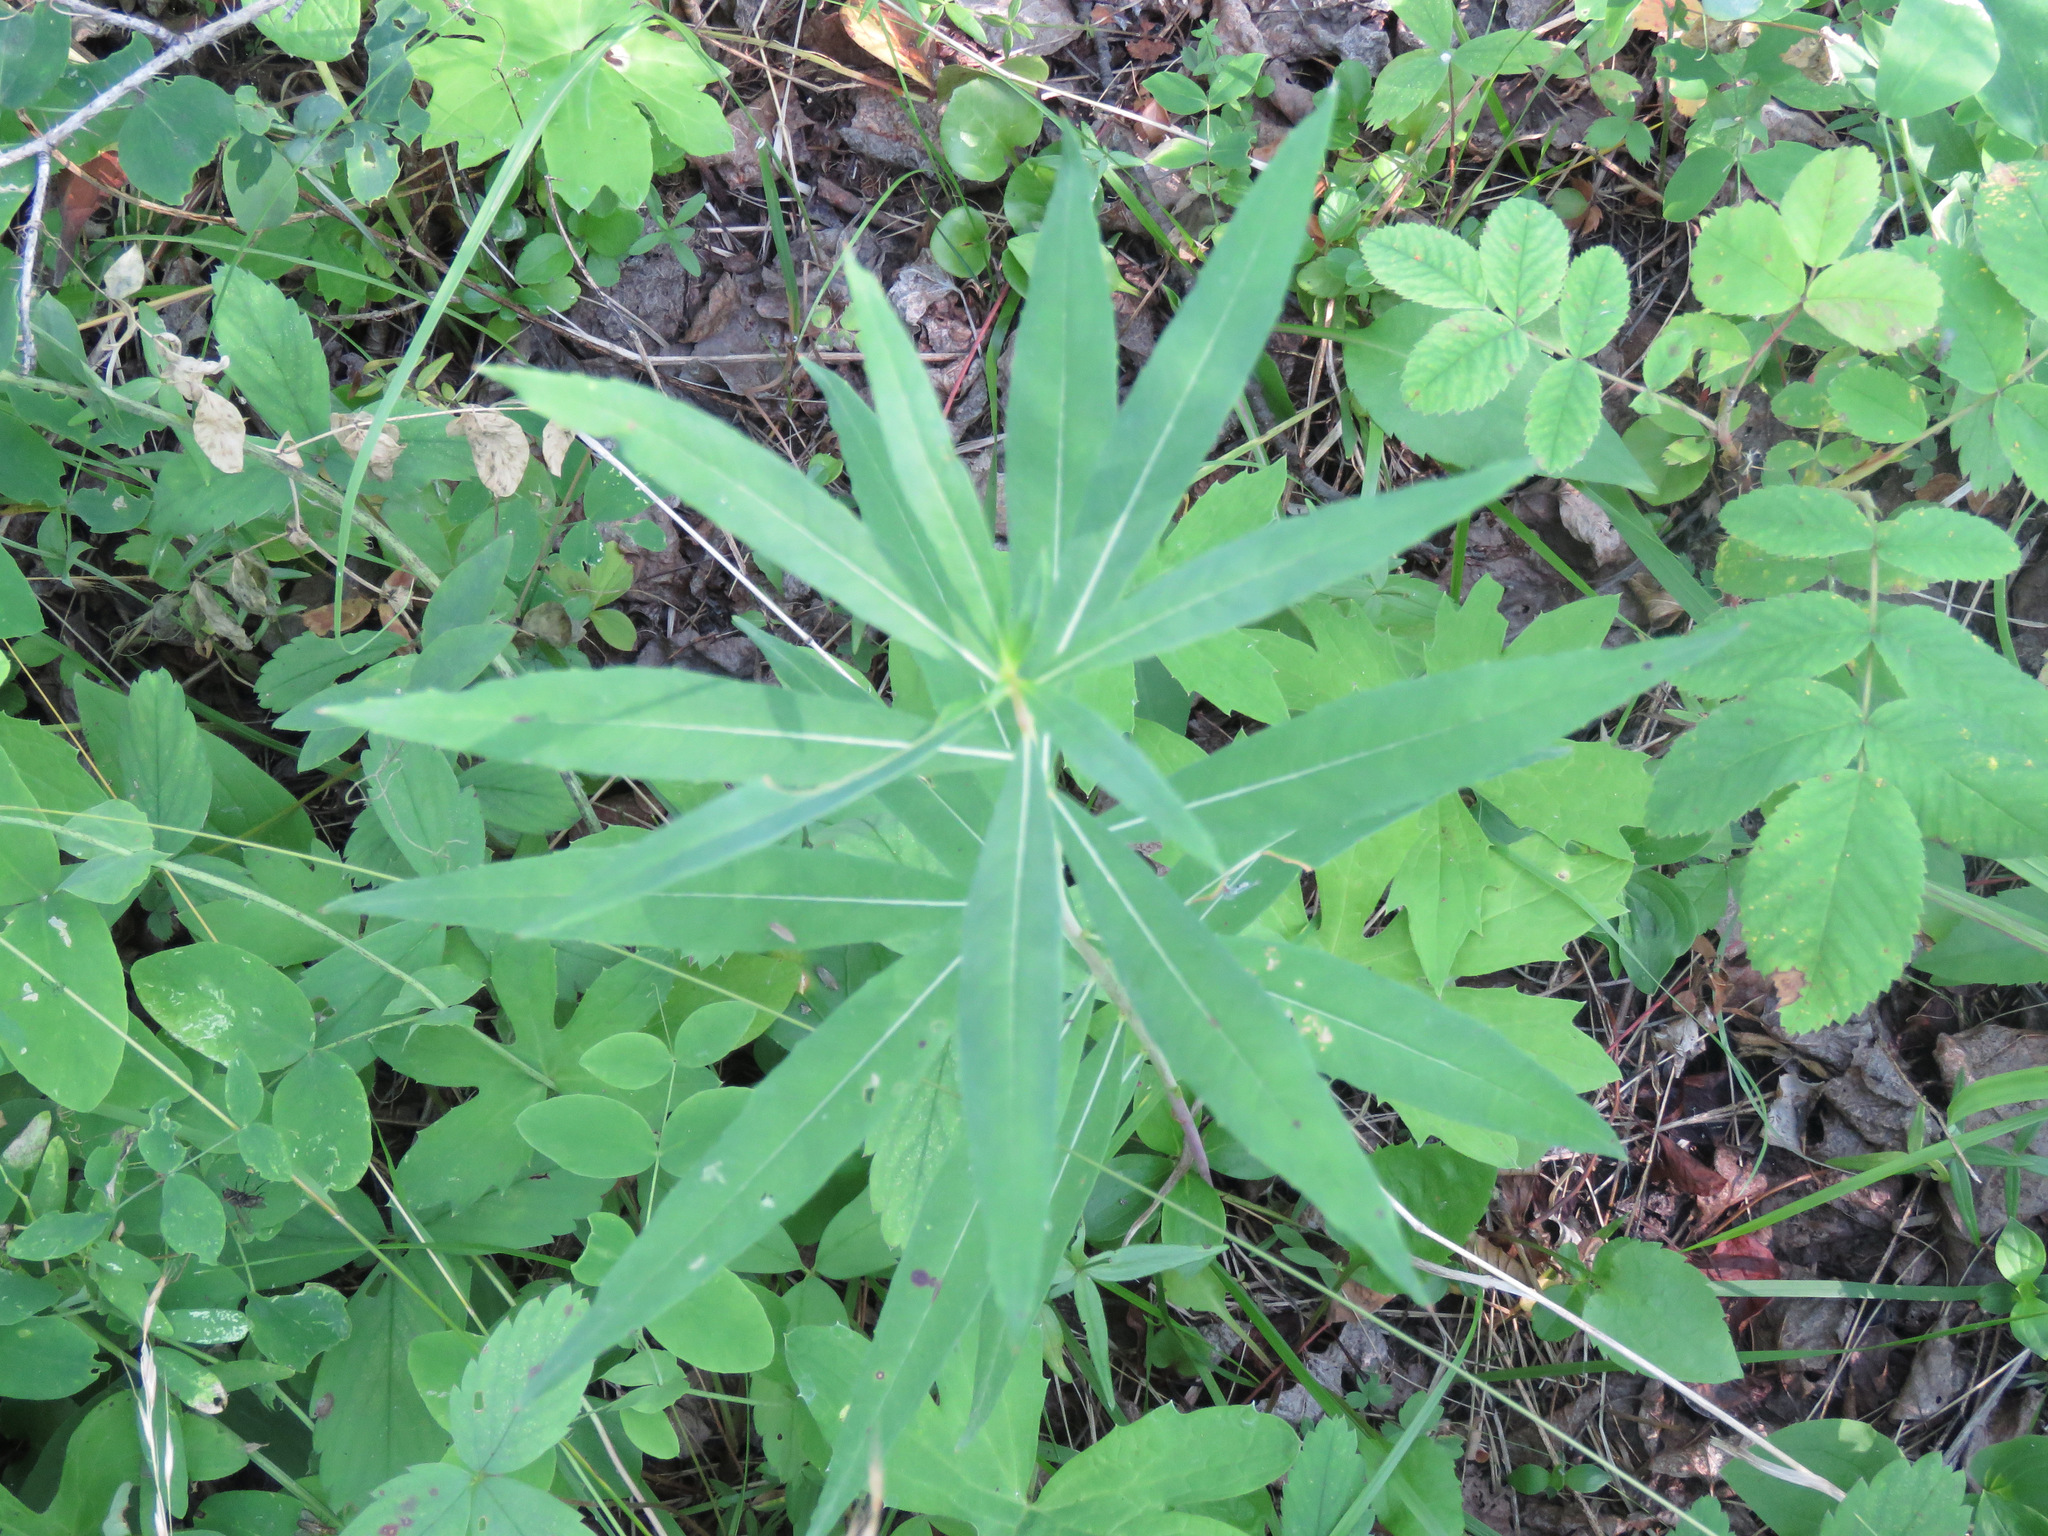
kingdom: Plantae
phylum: Tracheophyta
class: Magnoliopsida
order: Myrtales
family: Onagraceae
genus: Chamaenerion
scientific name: Chamaenerion angustifolium
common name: Fireweed
